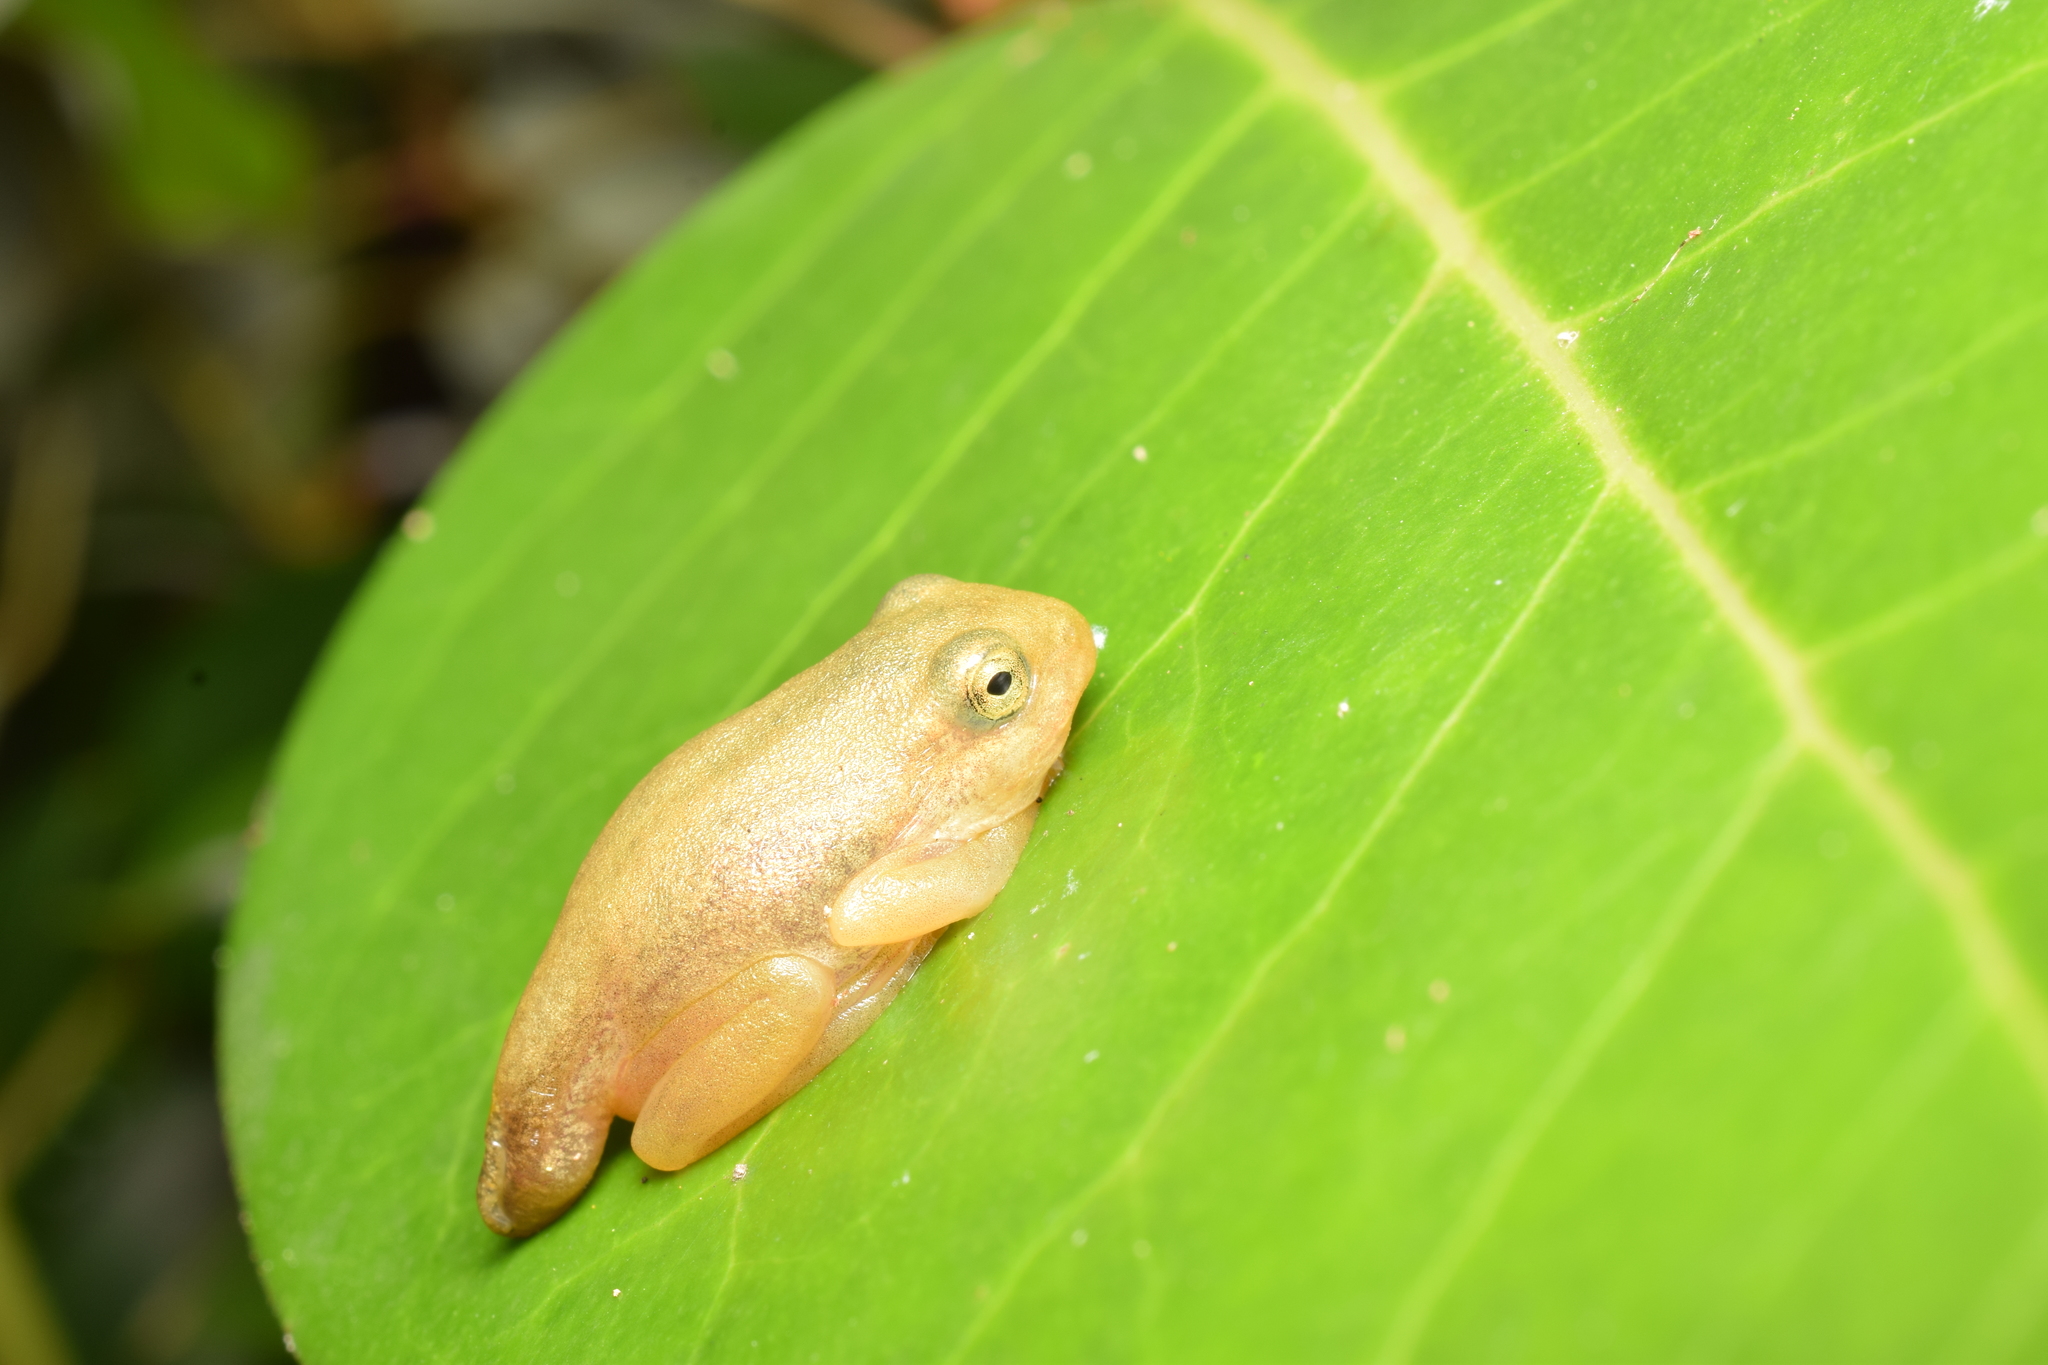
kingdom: Animalia
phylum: Chordata
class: Amphibia
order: Anura
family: Hylidae
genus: Dryophytes
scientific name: Dryophytes japonicus
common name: Japanese treefrog
